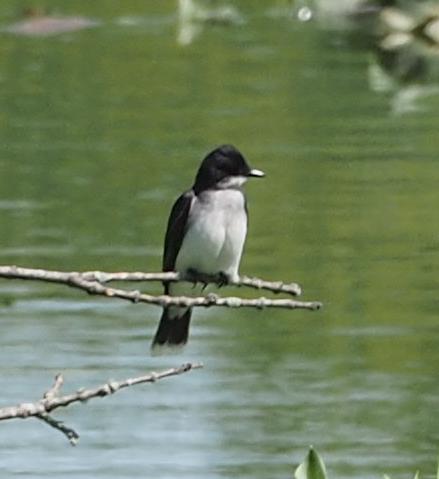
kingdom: Animalia
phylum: Chordata
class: Aves
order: Passeriformes
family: Tyrannidae
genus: Tyrannus
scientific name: Tyrannus tyrannus
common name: Eastern kingbird
